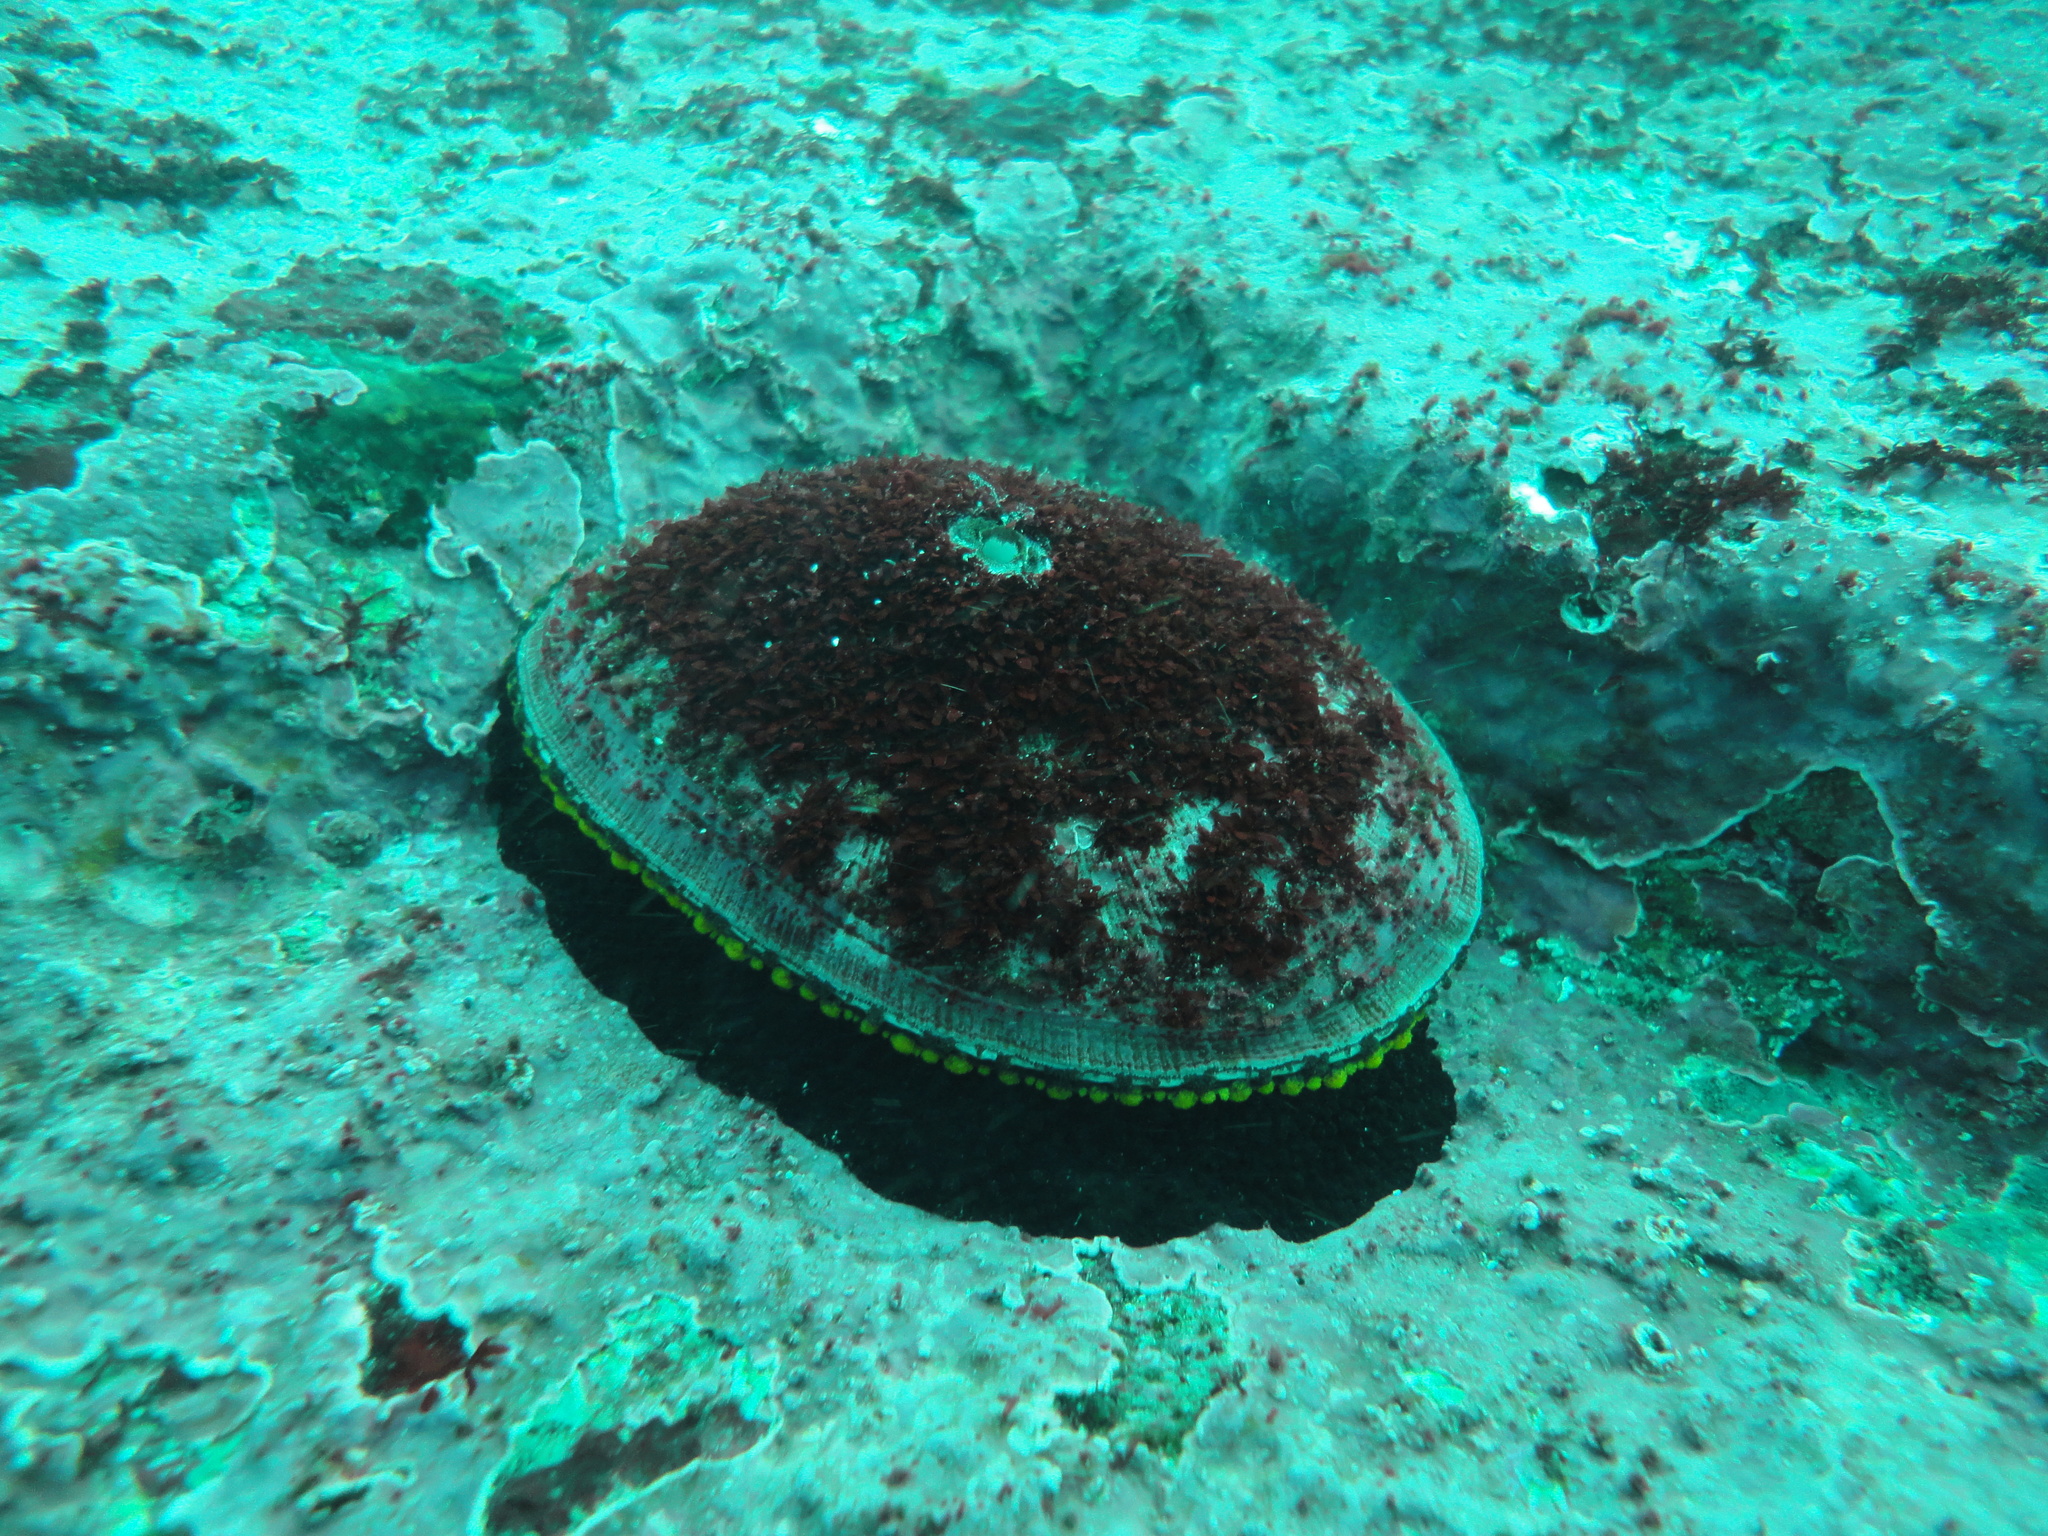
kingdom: Animalia
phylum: Mollusca
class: Gastropoda
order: Lepetellida
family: Fissurellidae
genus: Fissurella
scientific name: Fissurella latimarginata
